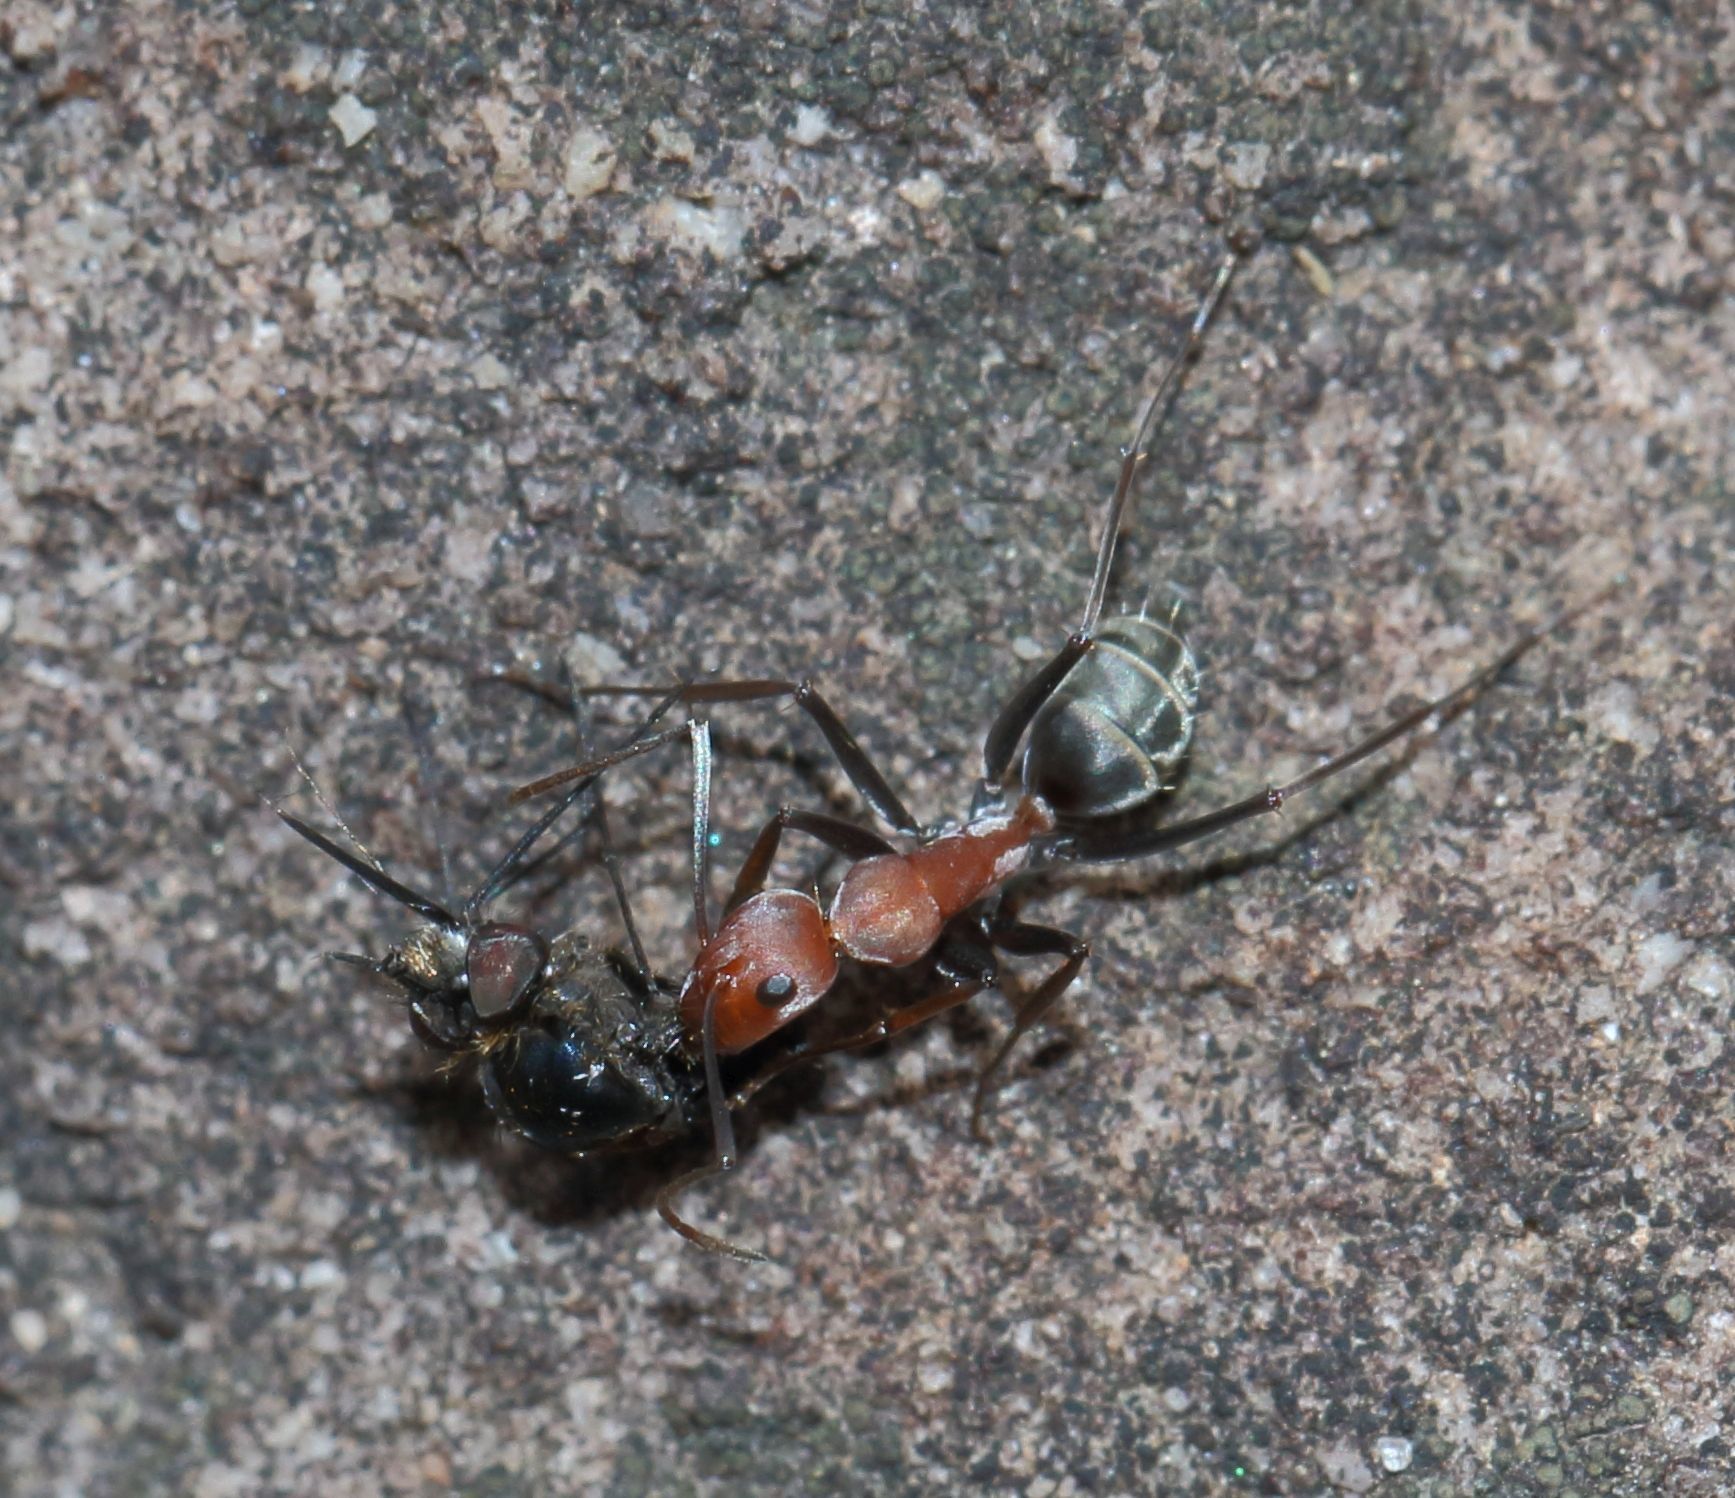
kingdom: Animalia
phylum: Arthropoda
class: Insecta
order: Hymenoptera
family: Formicidae
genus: Camponotus
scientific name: Camponotus vestitus
